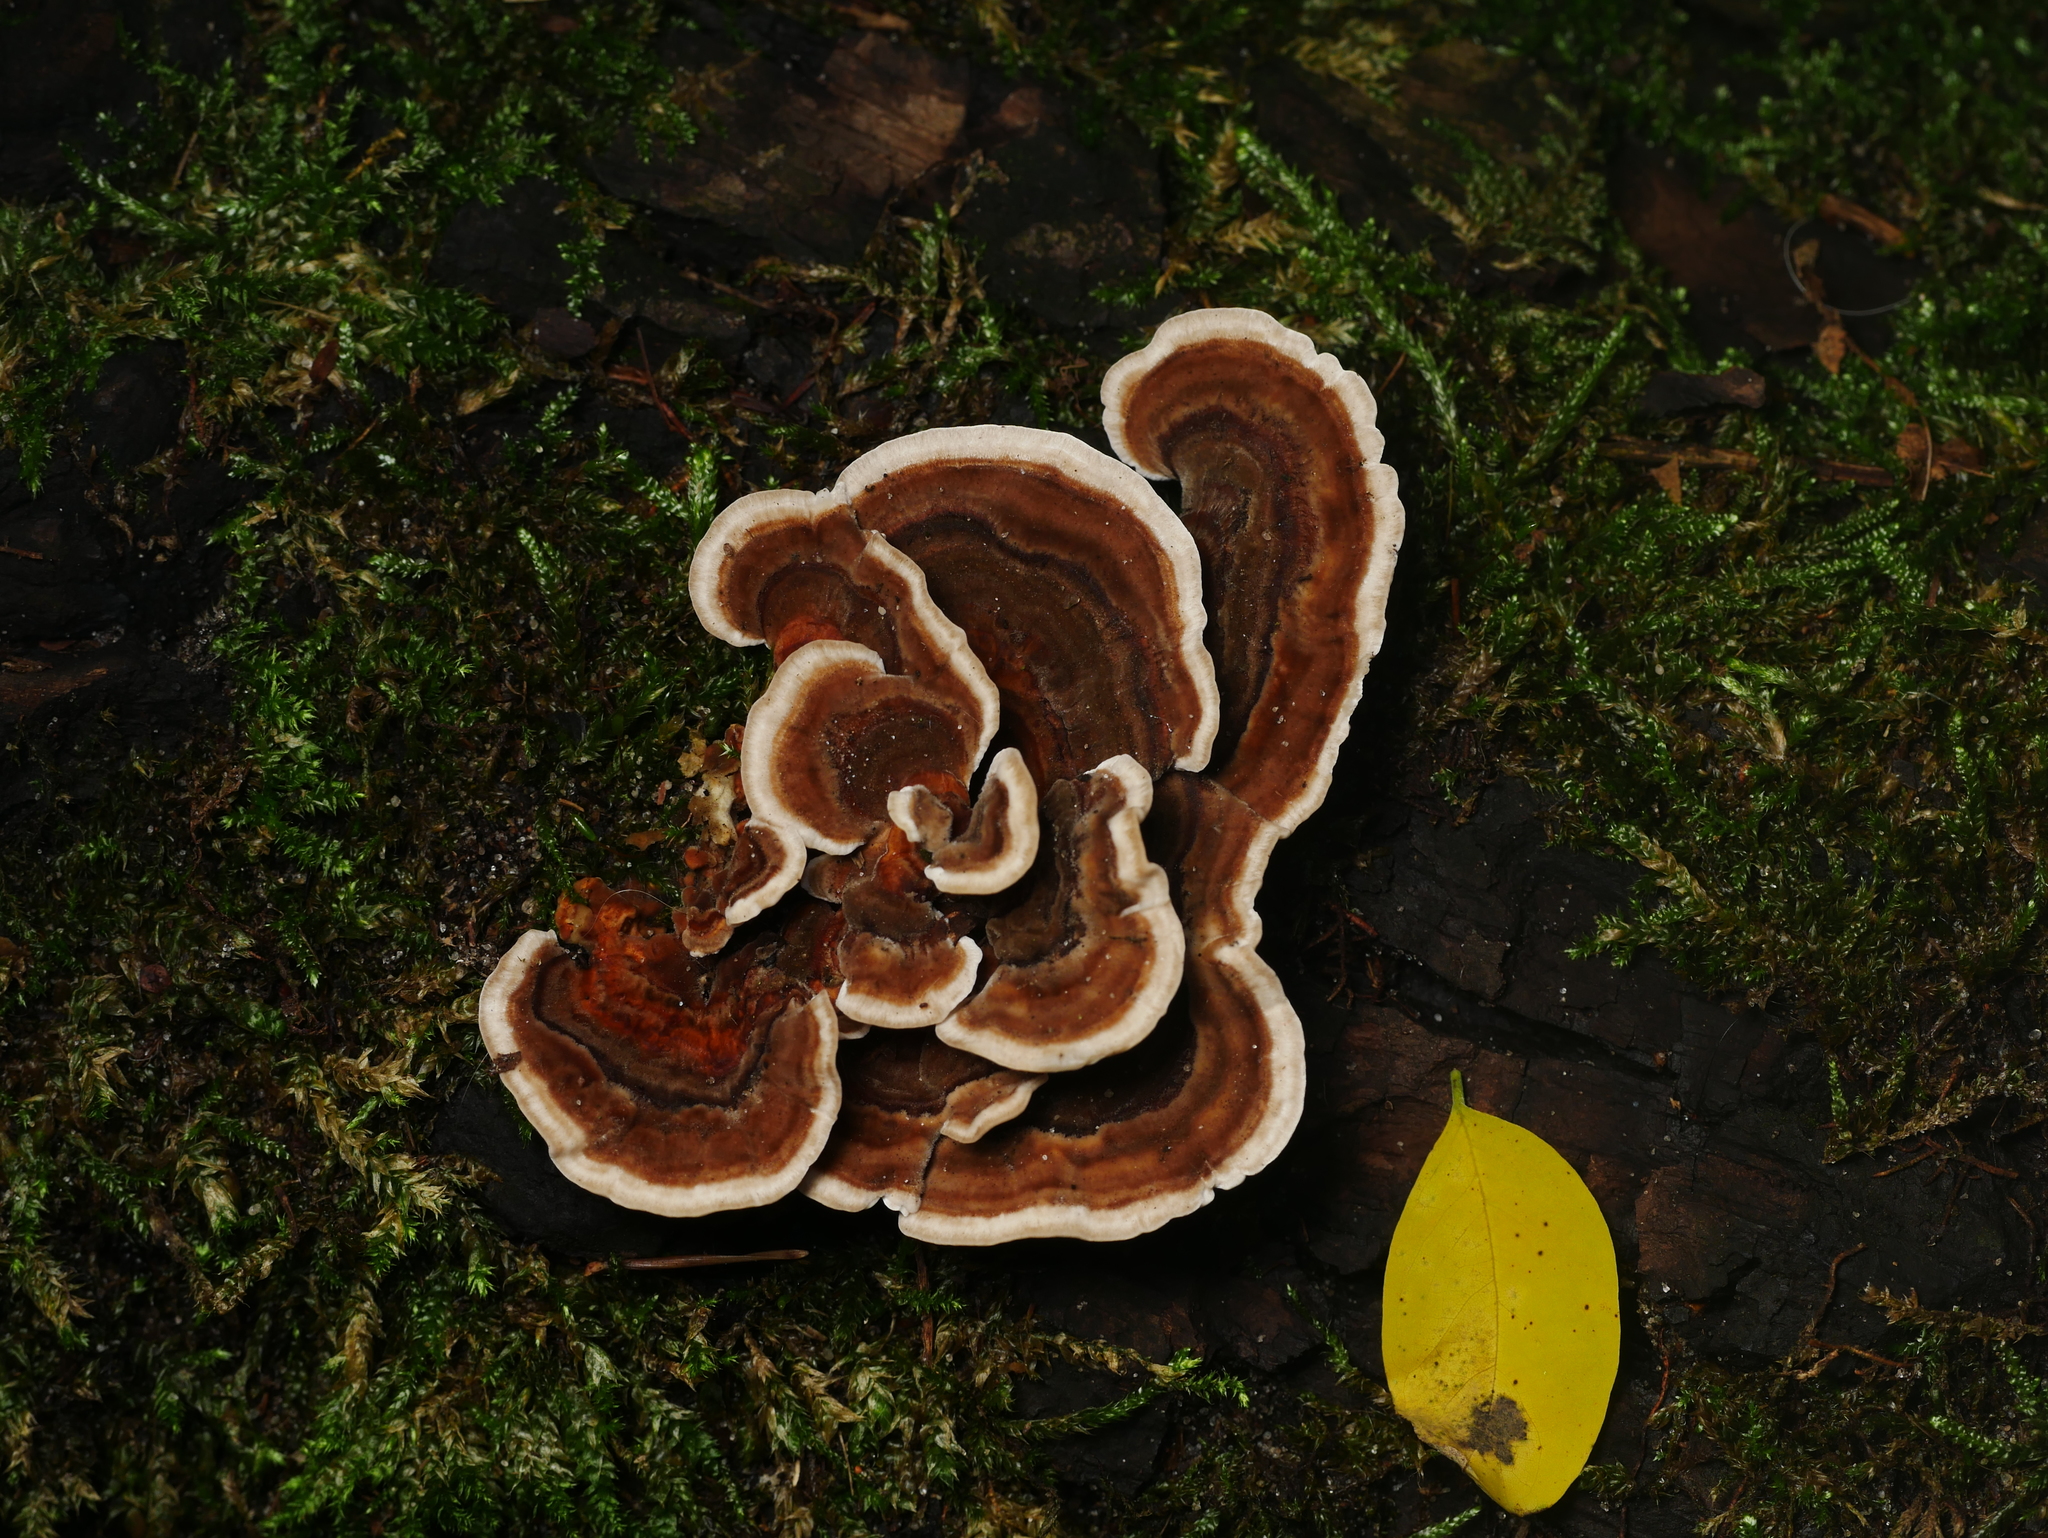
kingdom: Fungi
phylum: Basidiomycota
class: Agaricomycetes
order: Polyporales
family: Polyporaceae
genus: Trametes
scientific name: Trametes versicolor
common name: Turkeytail
